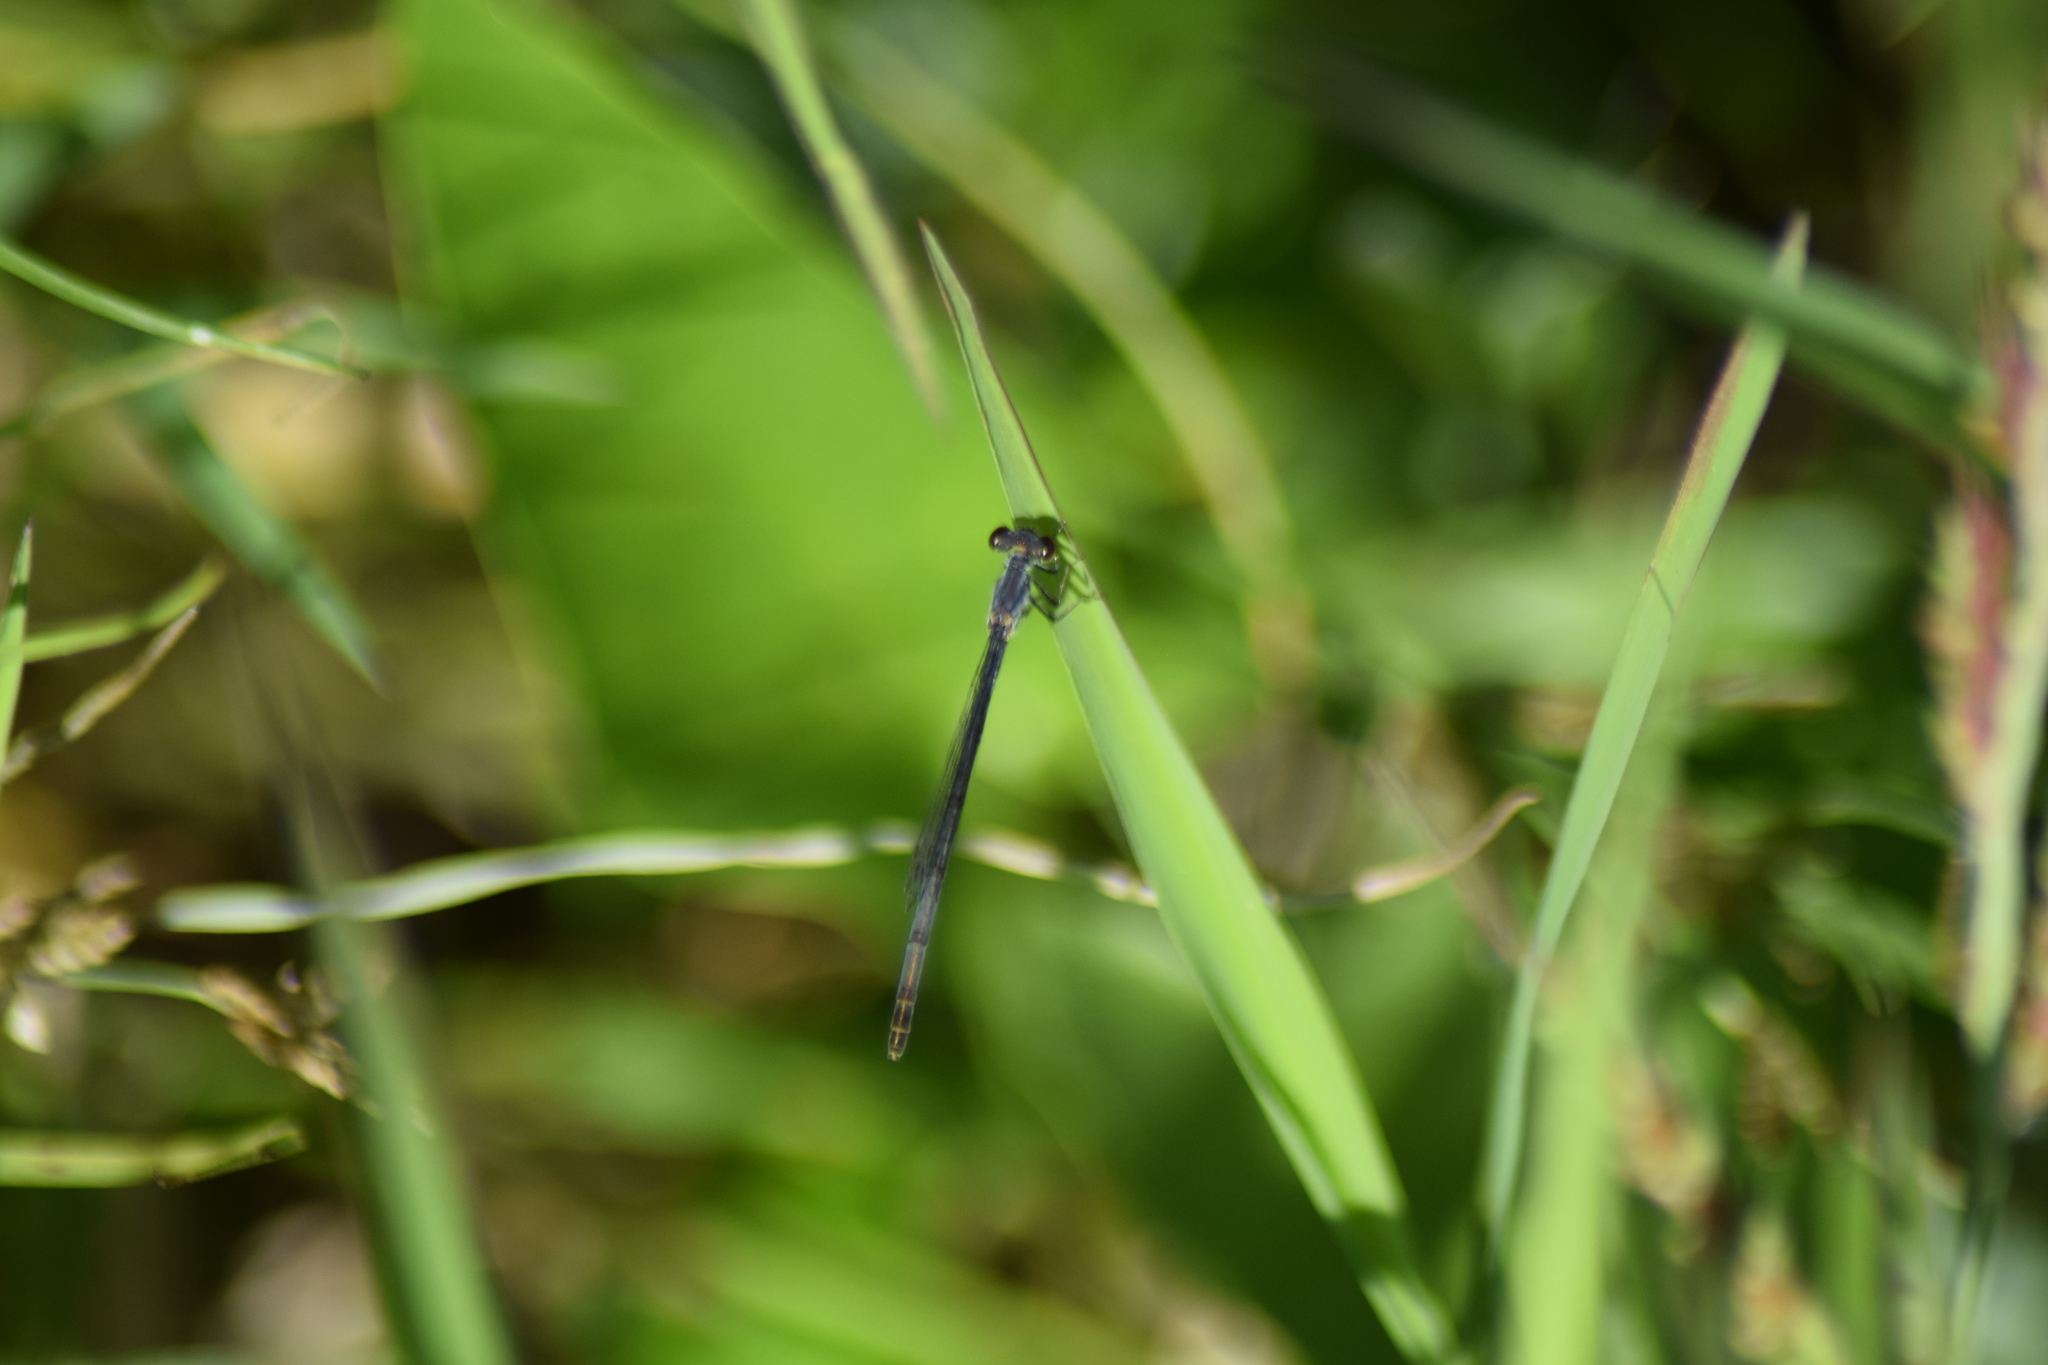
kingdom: Animalia
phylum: Arthropoda
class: Insecta
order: Odonata
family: Coenagrionidae
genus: Ischnura
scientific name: Ischnura posita
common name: Fragile forktail
